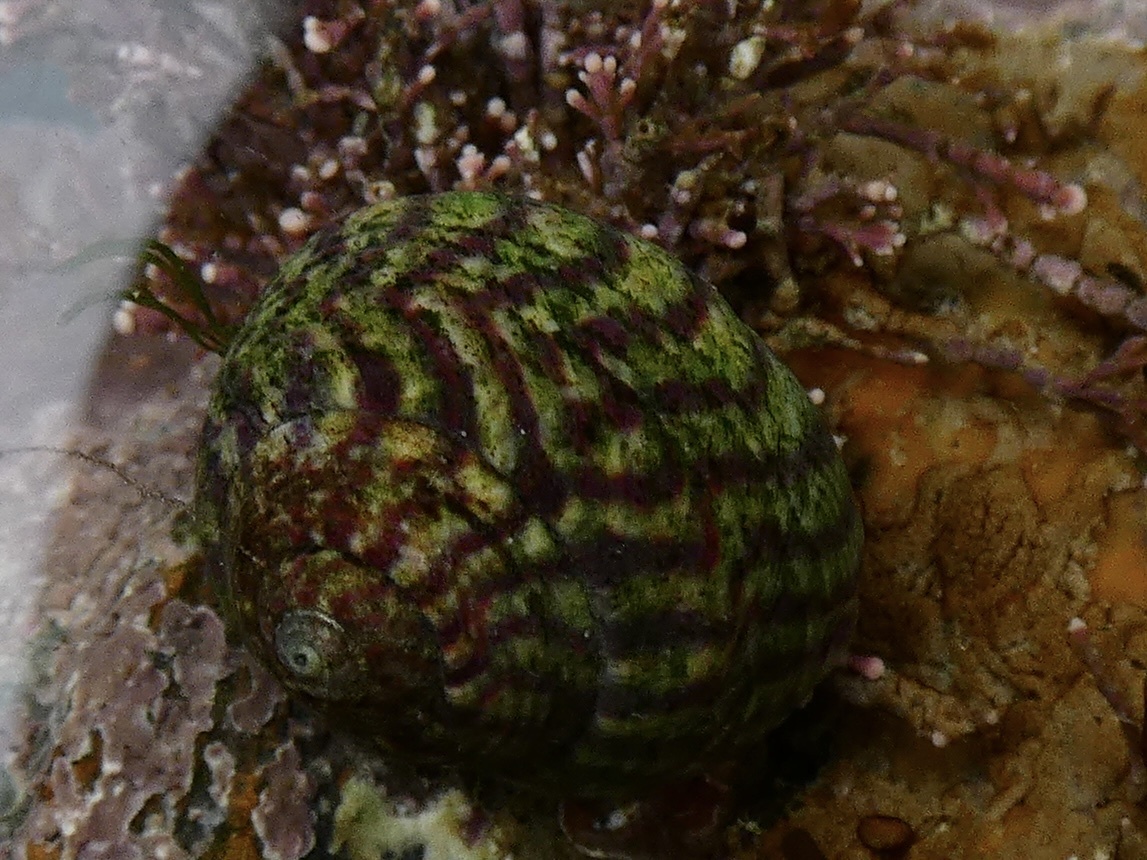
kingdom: Animalia
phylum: Mollusca
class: Gastropoda
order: Trochida
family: Trochidae
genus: Steromphala
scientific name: Steromphala umbilicalis
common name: Flat top shell
